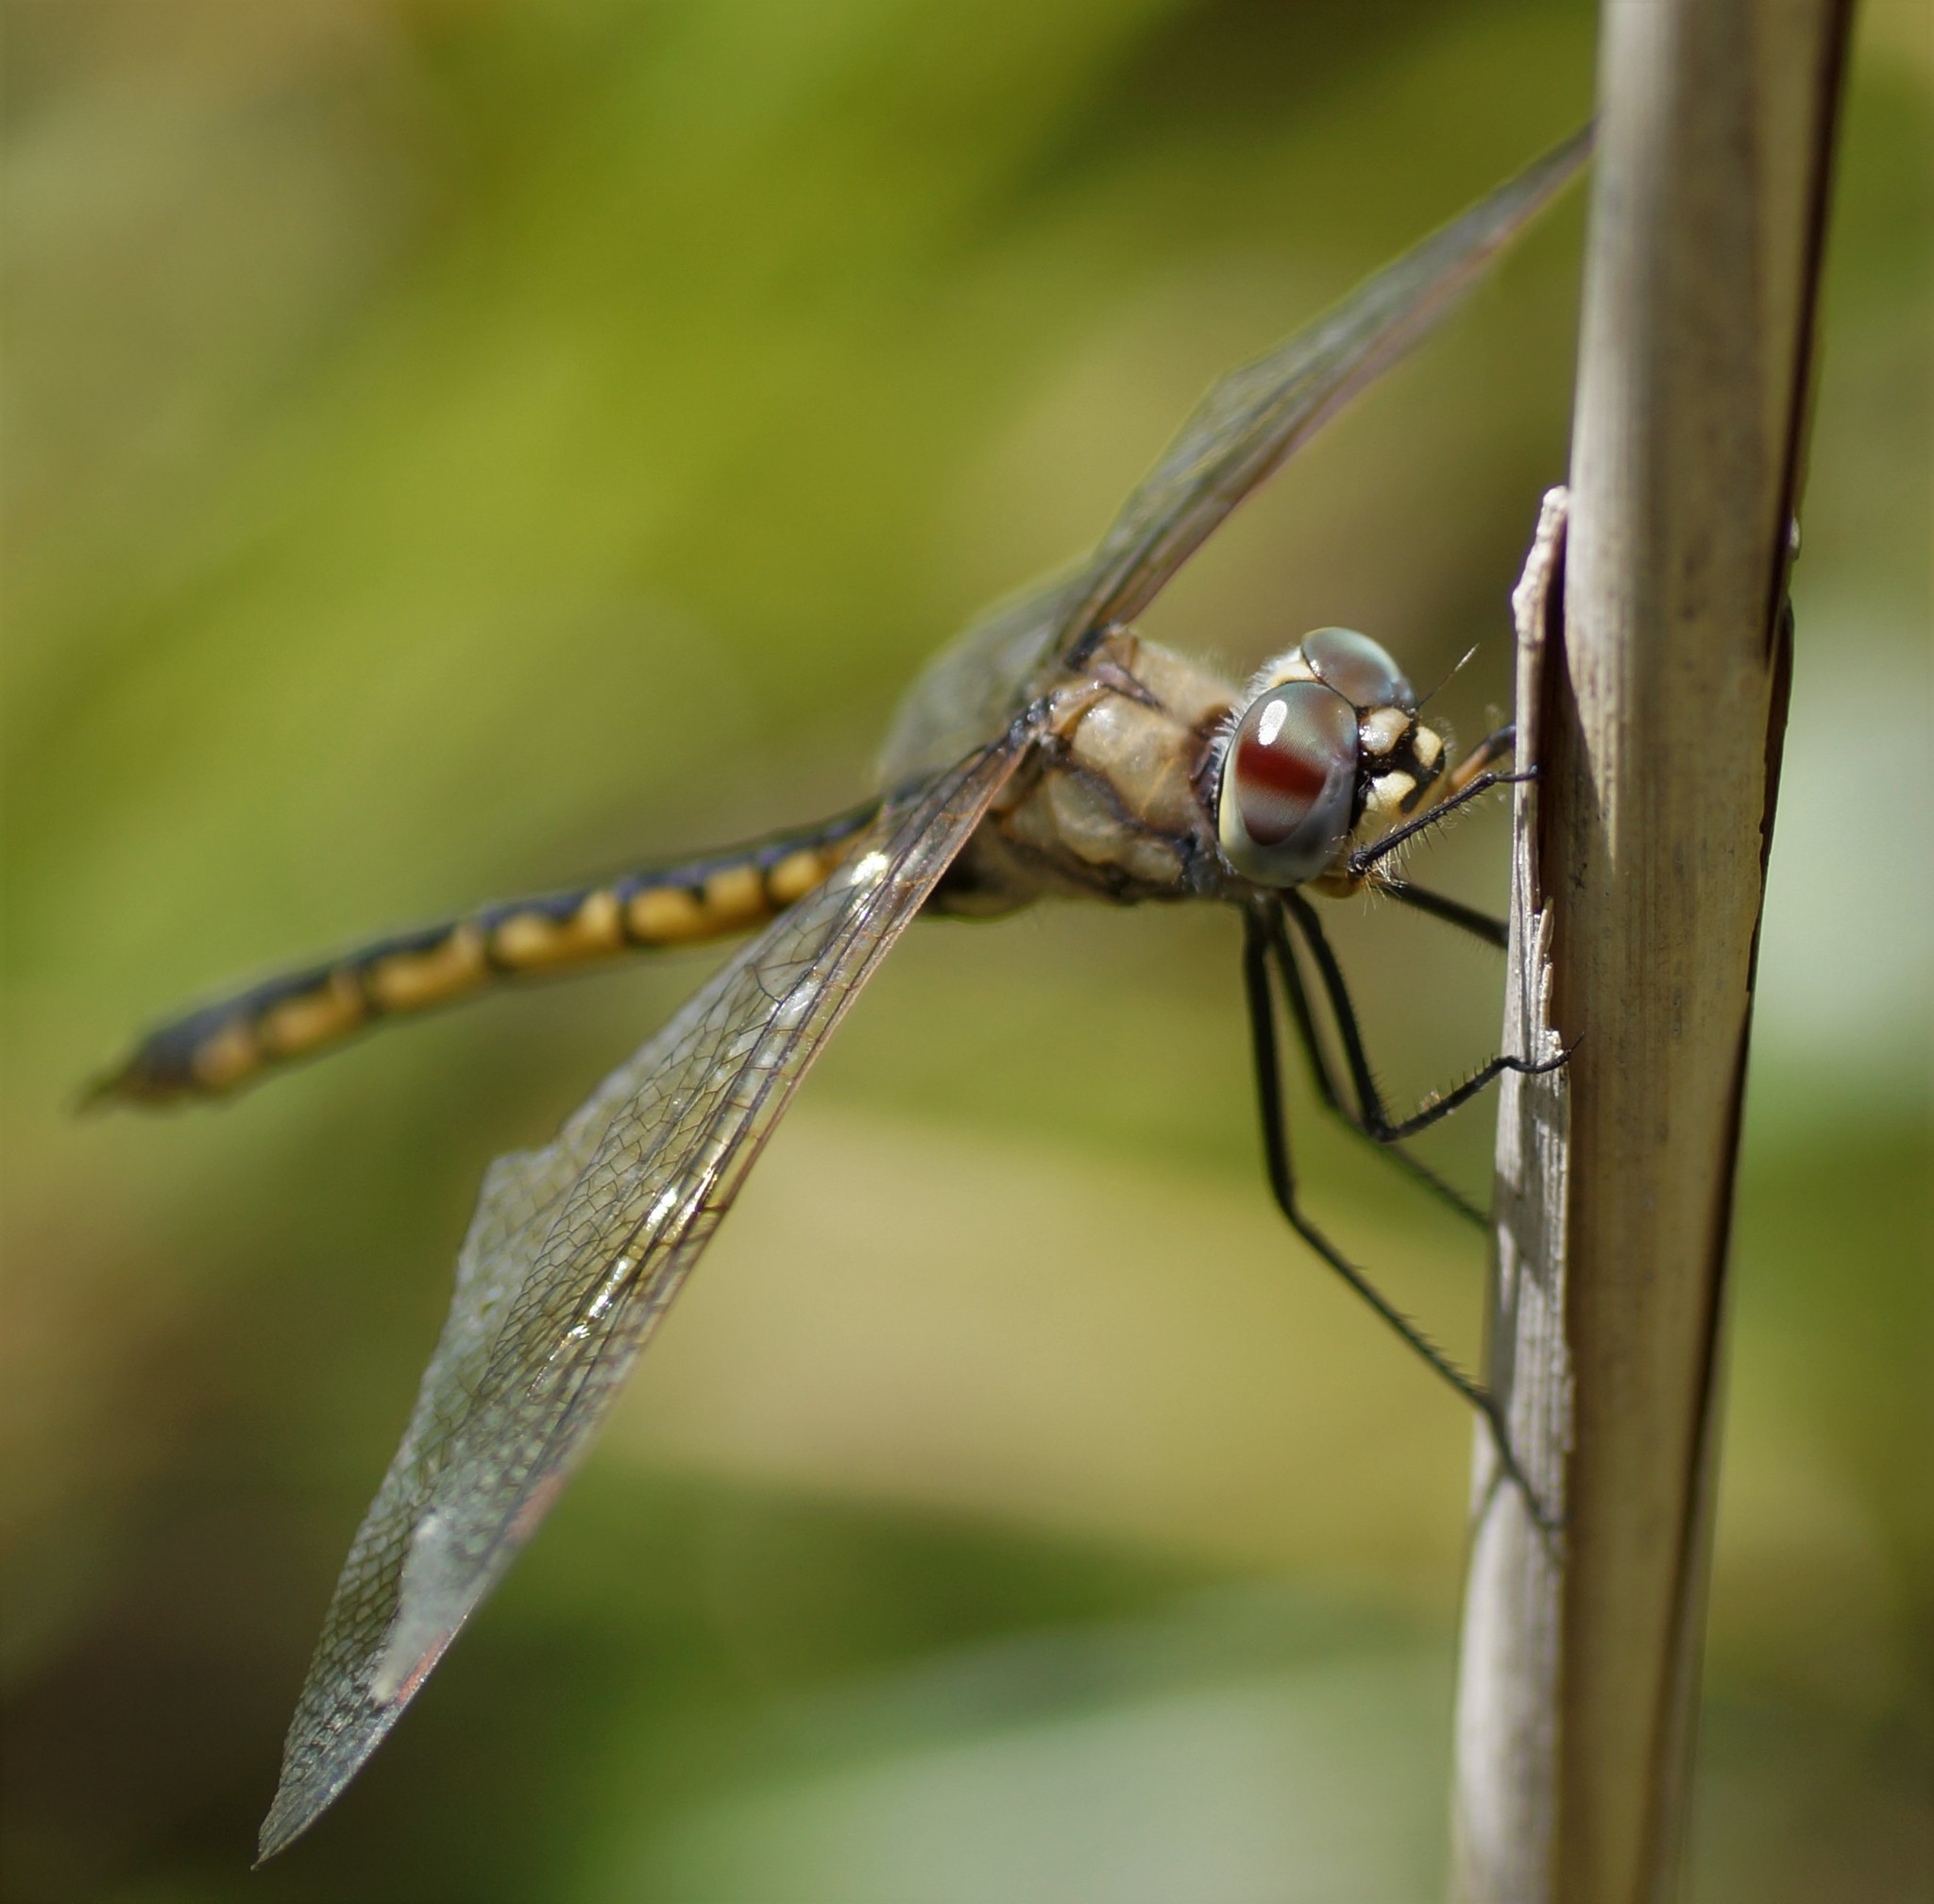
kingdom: Animalia
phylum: Arthropoda
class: Insecta
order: Odonata
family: Corduliidae
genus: Hemicordulia
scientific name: Hemicordulia tau
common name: Tau emerald
